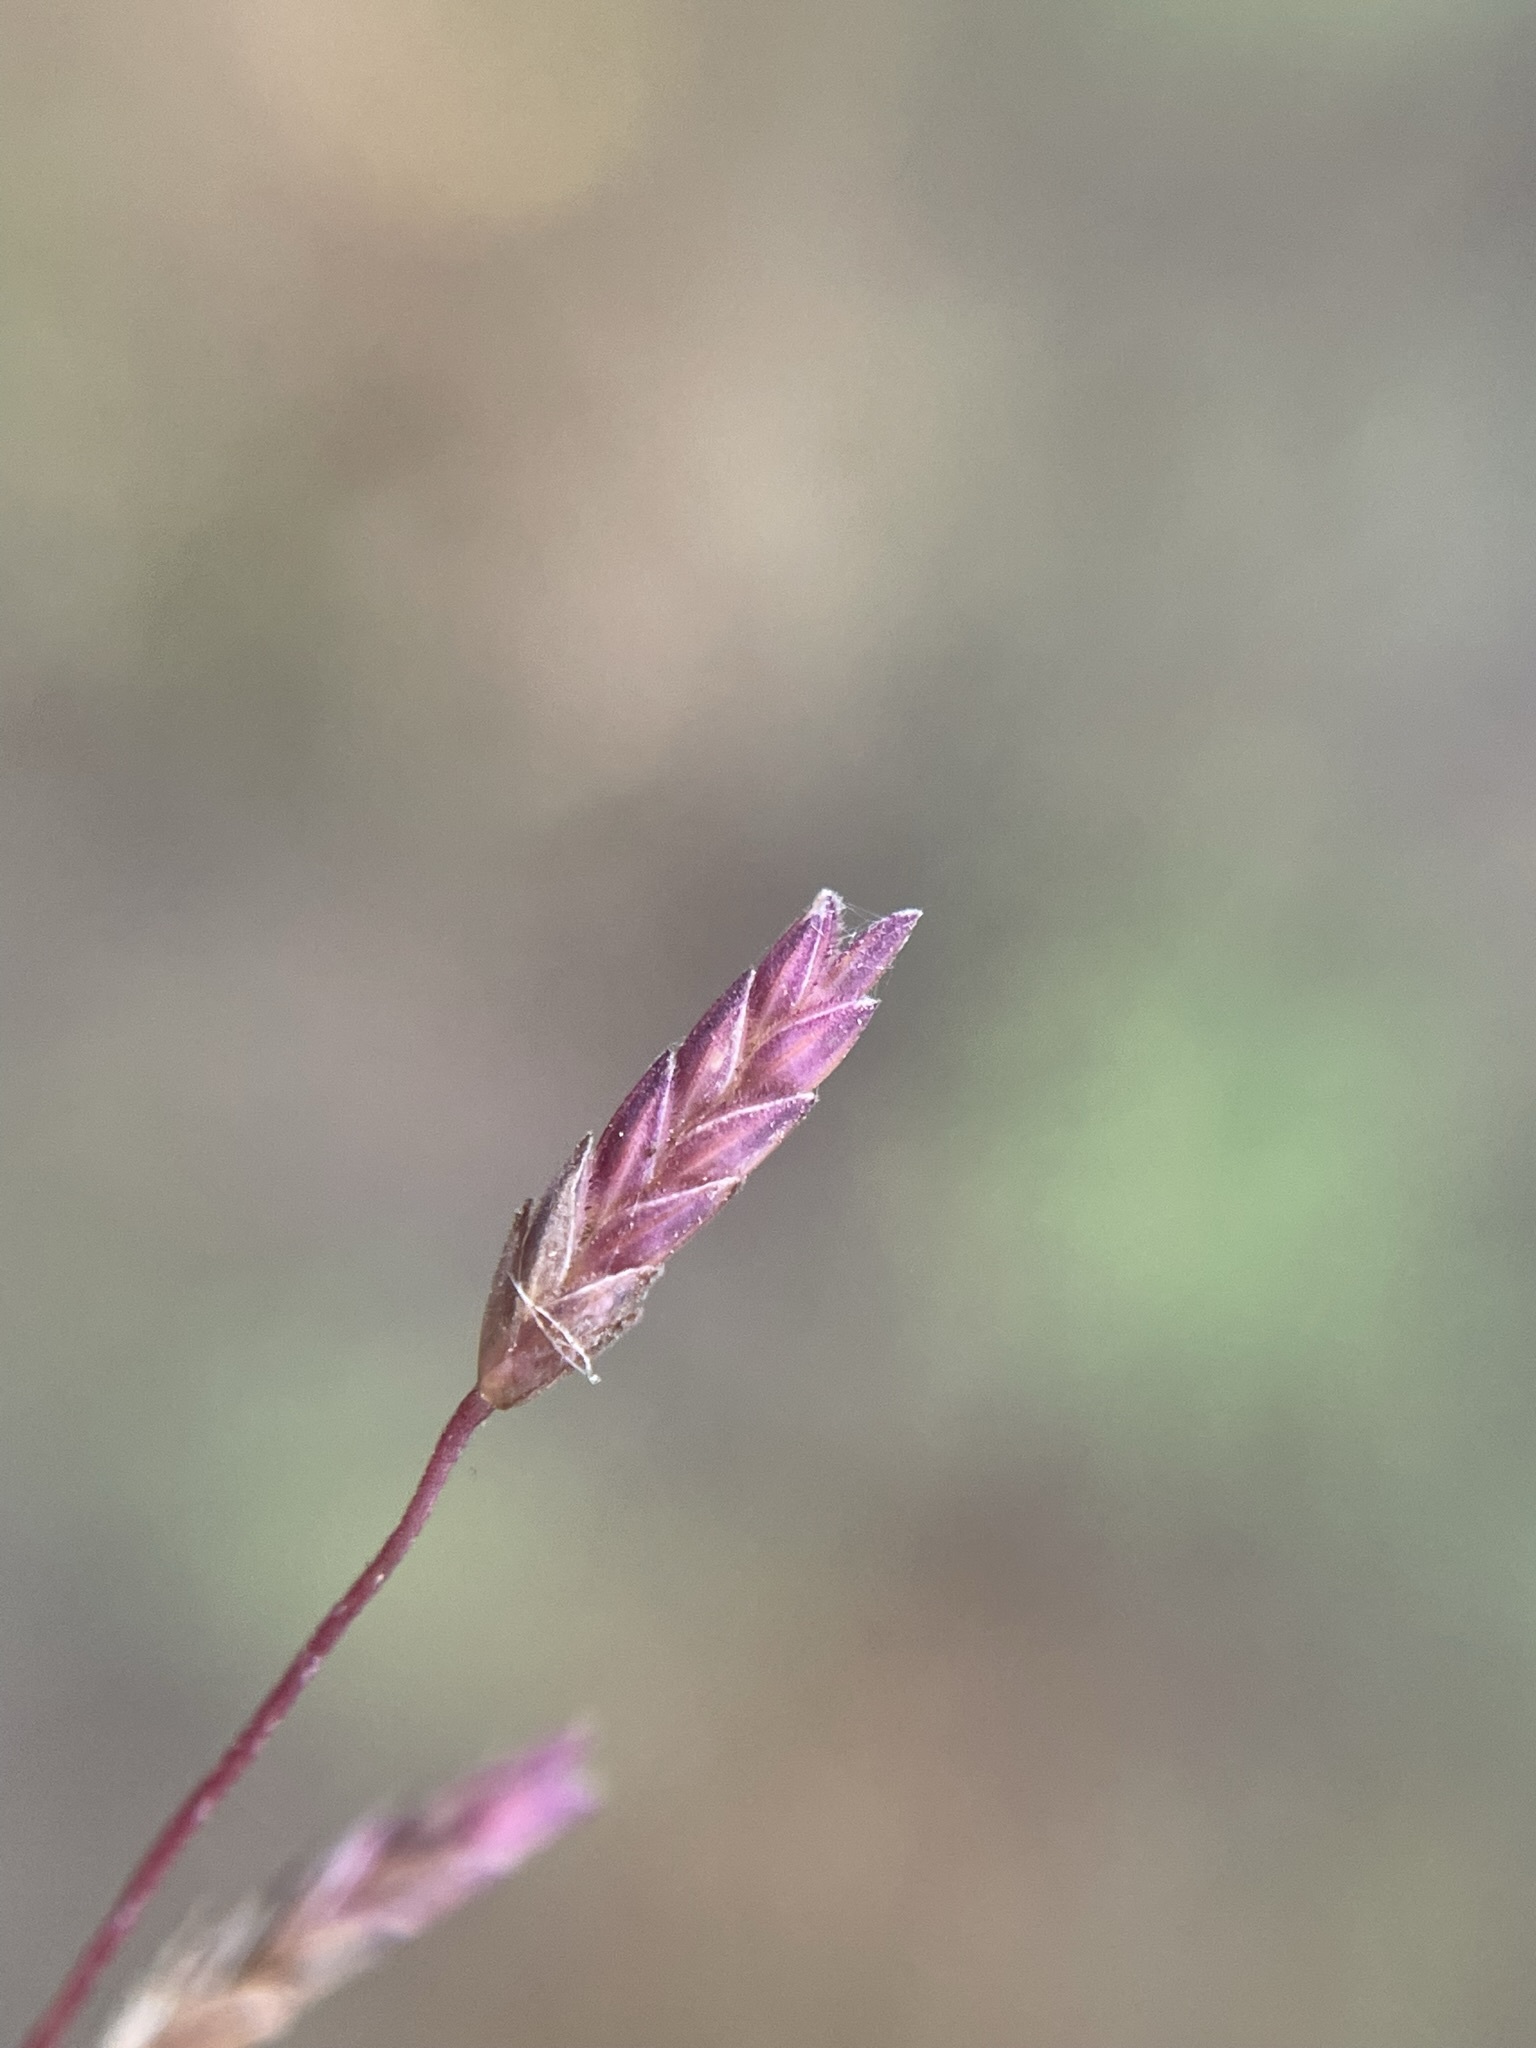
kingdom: Plantae
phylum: Tracheophyta
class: Liliopsida
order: Poales
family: Poaceae
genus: Eragrostis
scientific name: Eragrostis spectabilis
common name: Petticoat-climber
